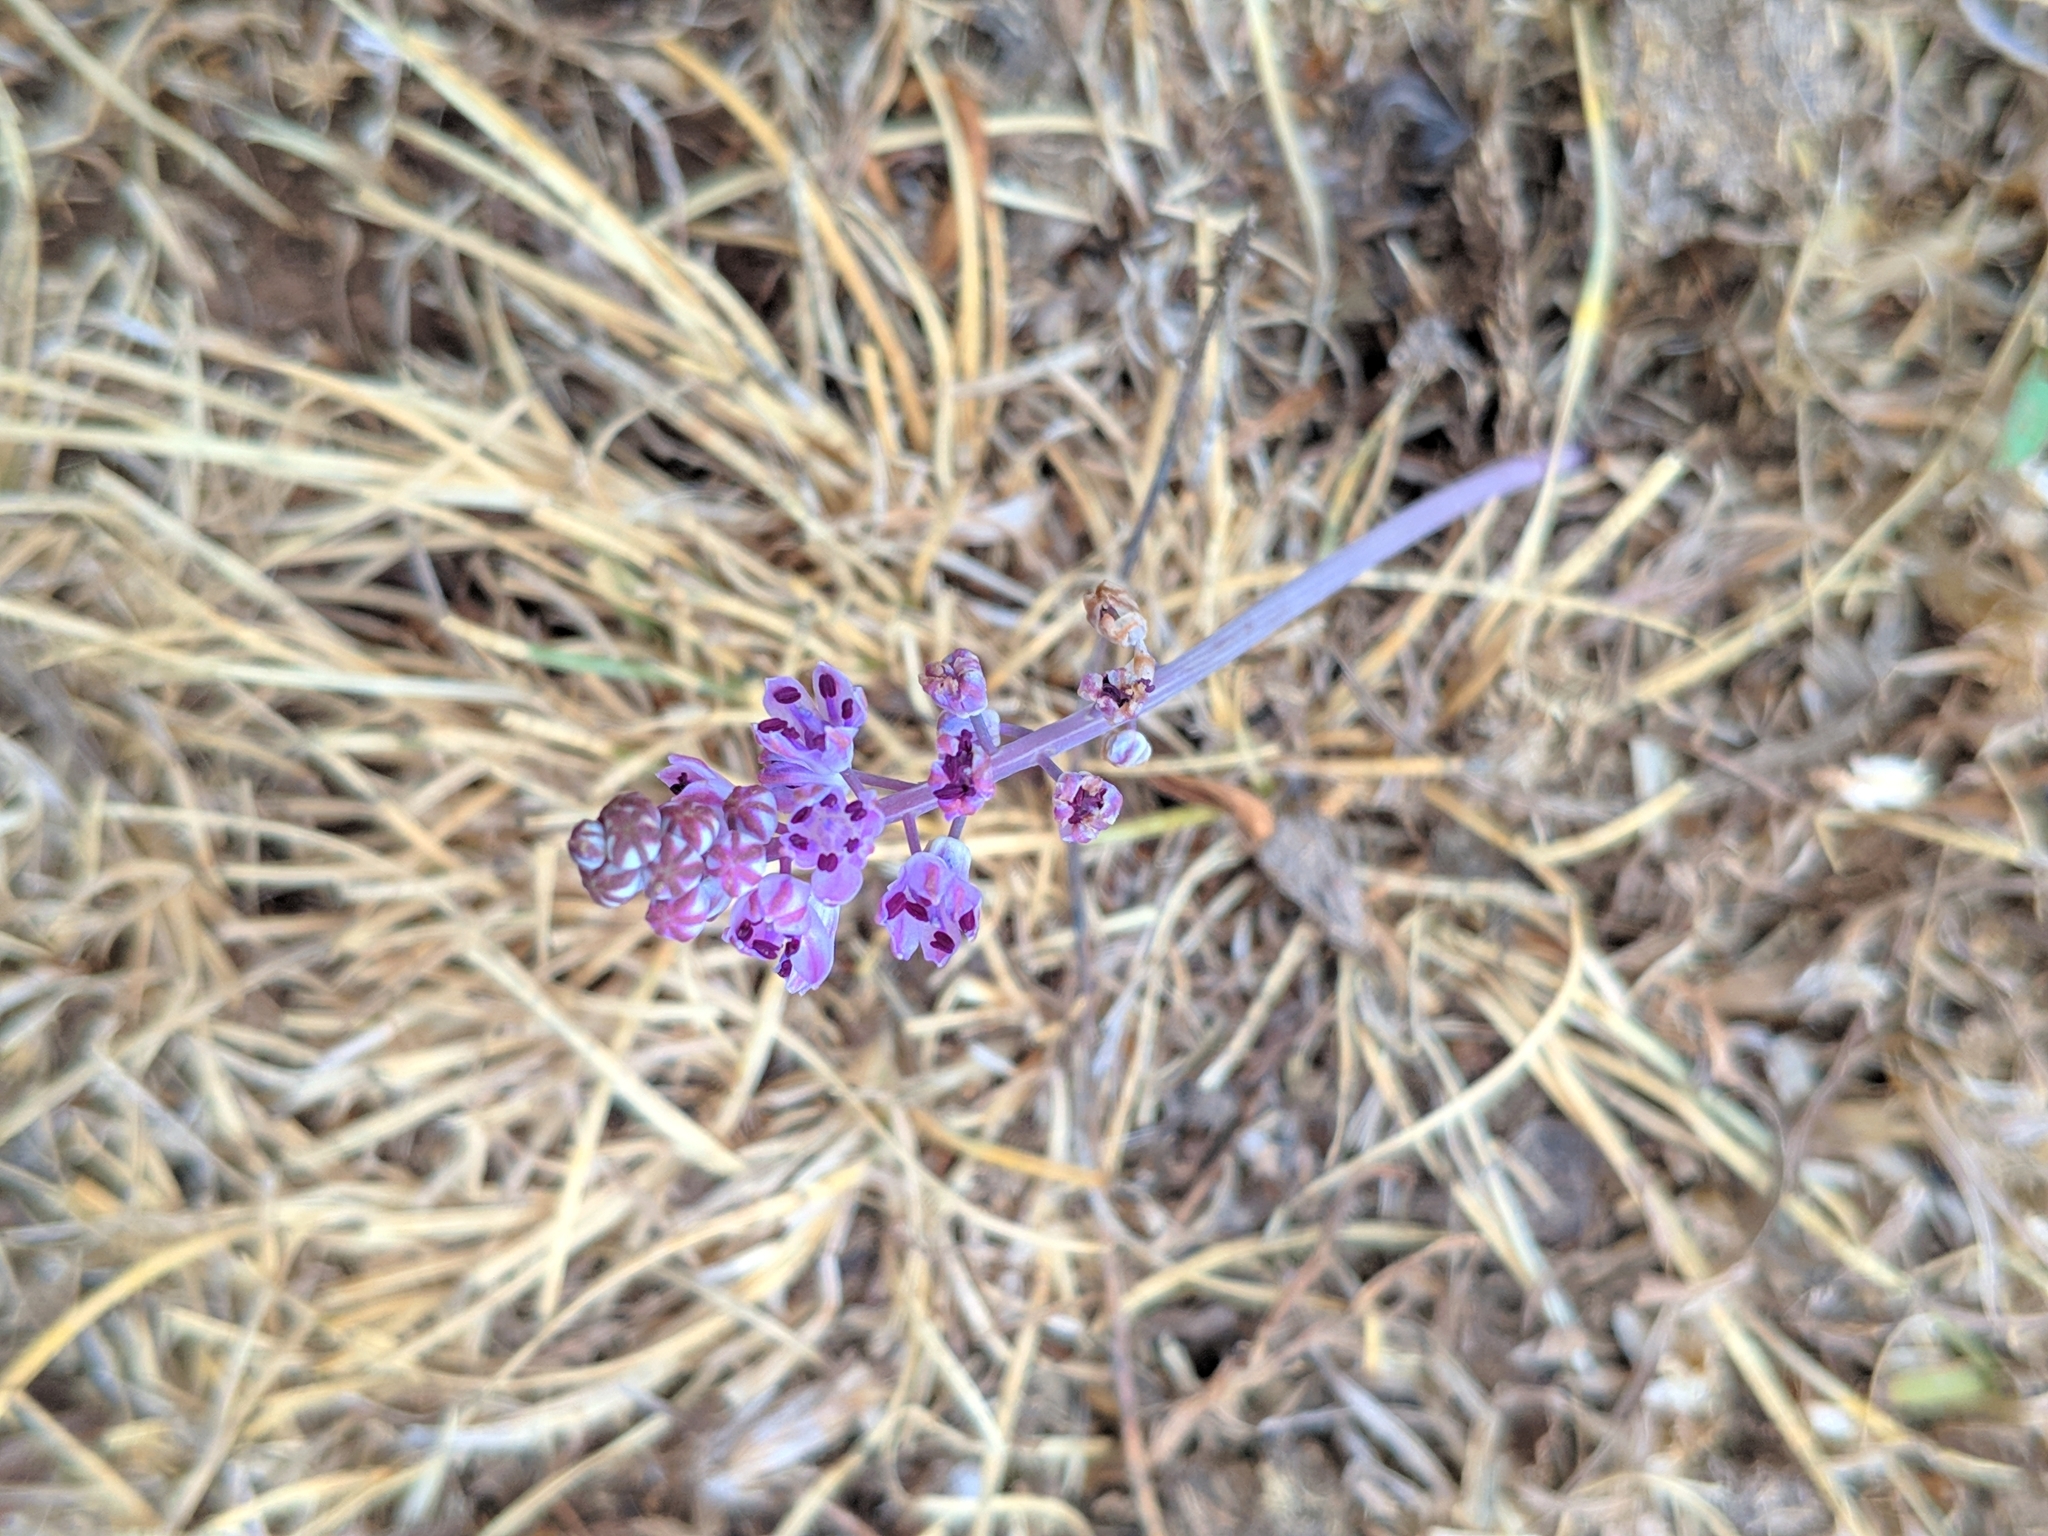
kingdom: Plantae
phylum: Tracheophyta
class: Liliopsida
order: Asparagales
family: Asparagaceae
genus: Prospero
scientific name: Prospero autumnale
